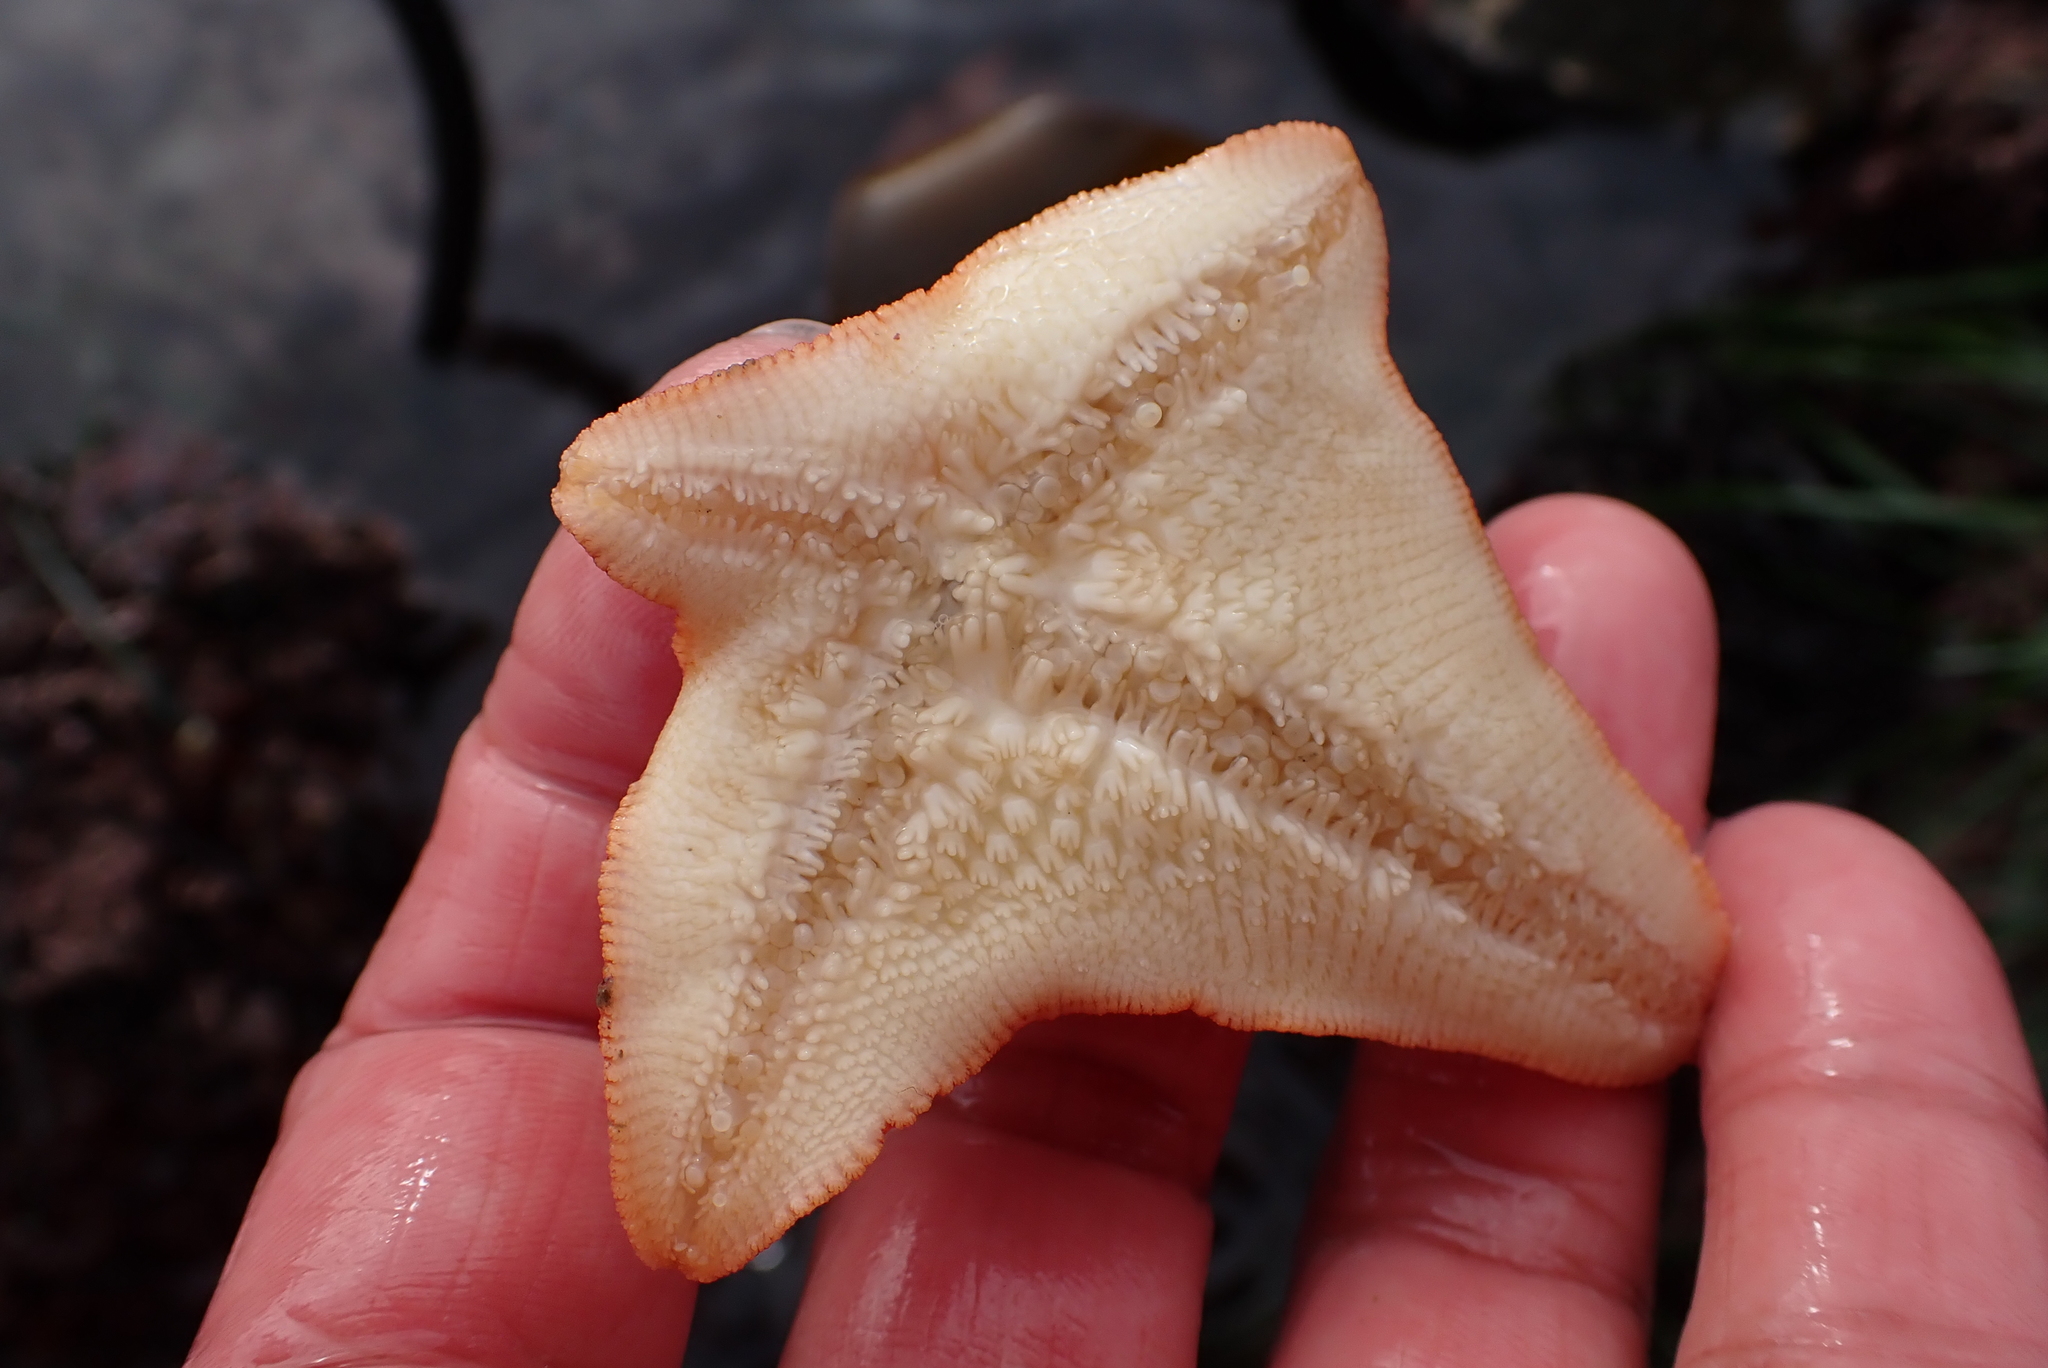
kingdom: Animalia
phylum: Echinodermata
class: Asteroidea
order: Valvatida
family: Asterinidae
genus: Patiria
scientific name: Patiria miniata
